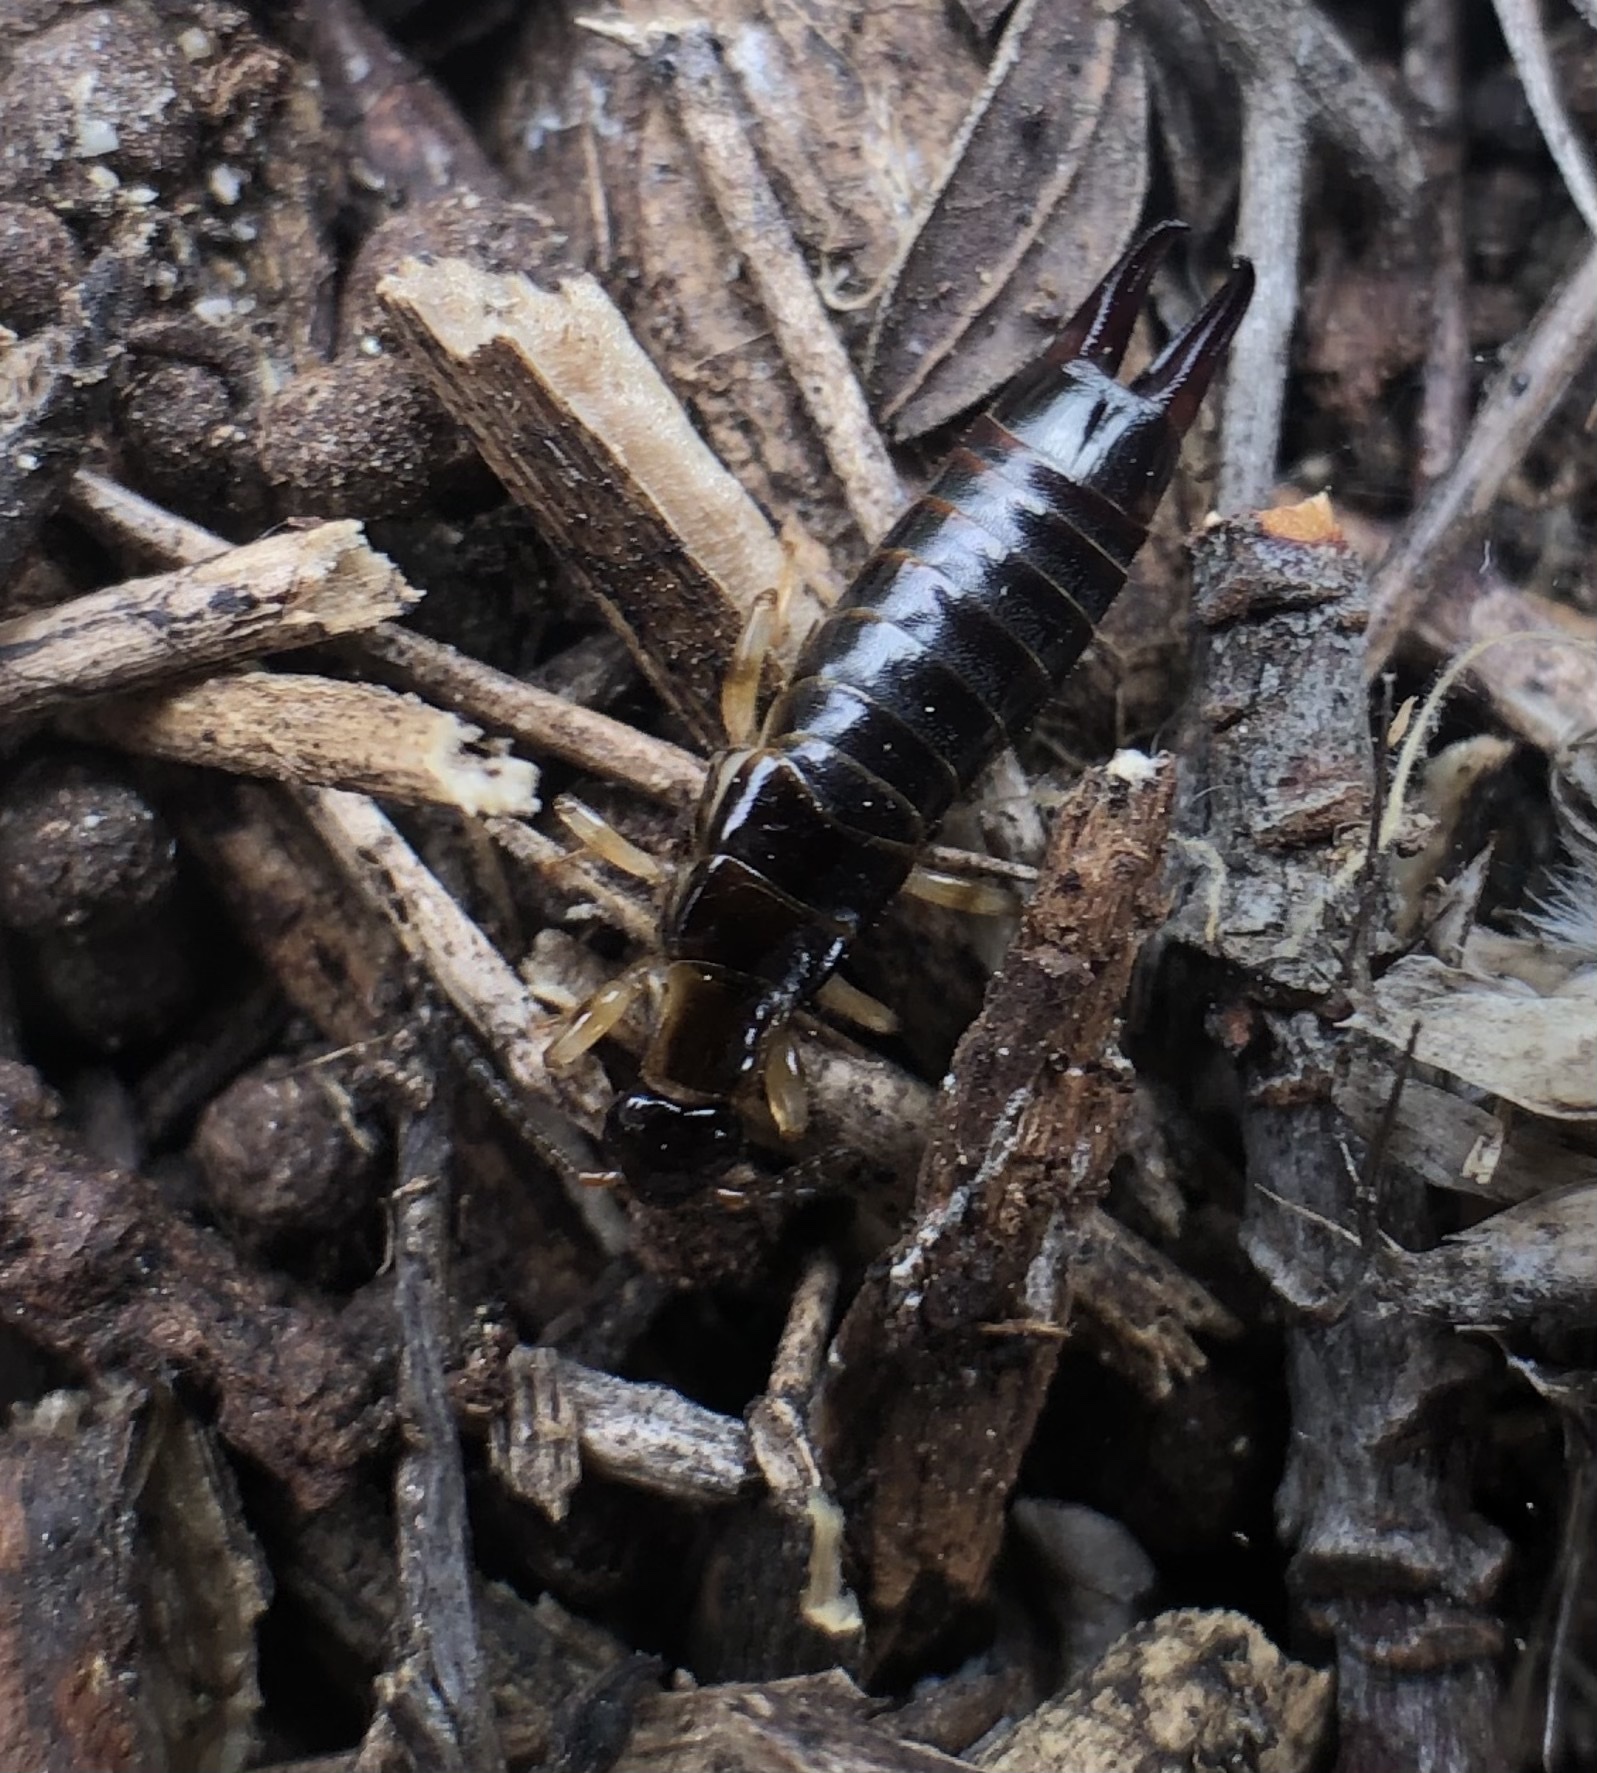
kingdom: Animalia
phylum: Arthropoda
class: Insecta
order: Dermaptera
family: Anisolabididae
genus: Euborellia
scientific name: Euborellia annulipes
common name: Ringlegged earwig
